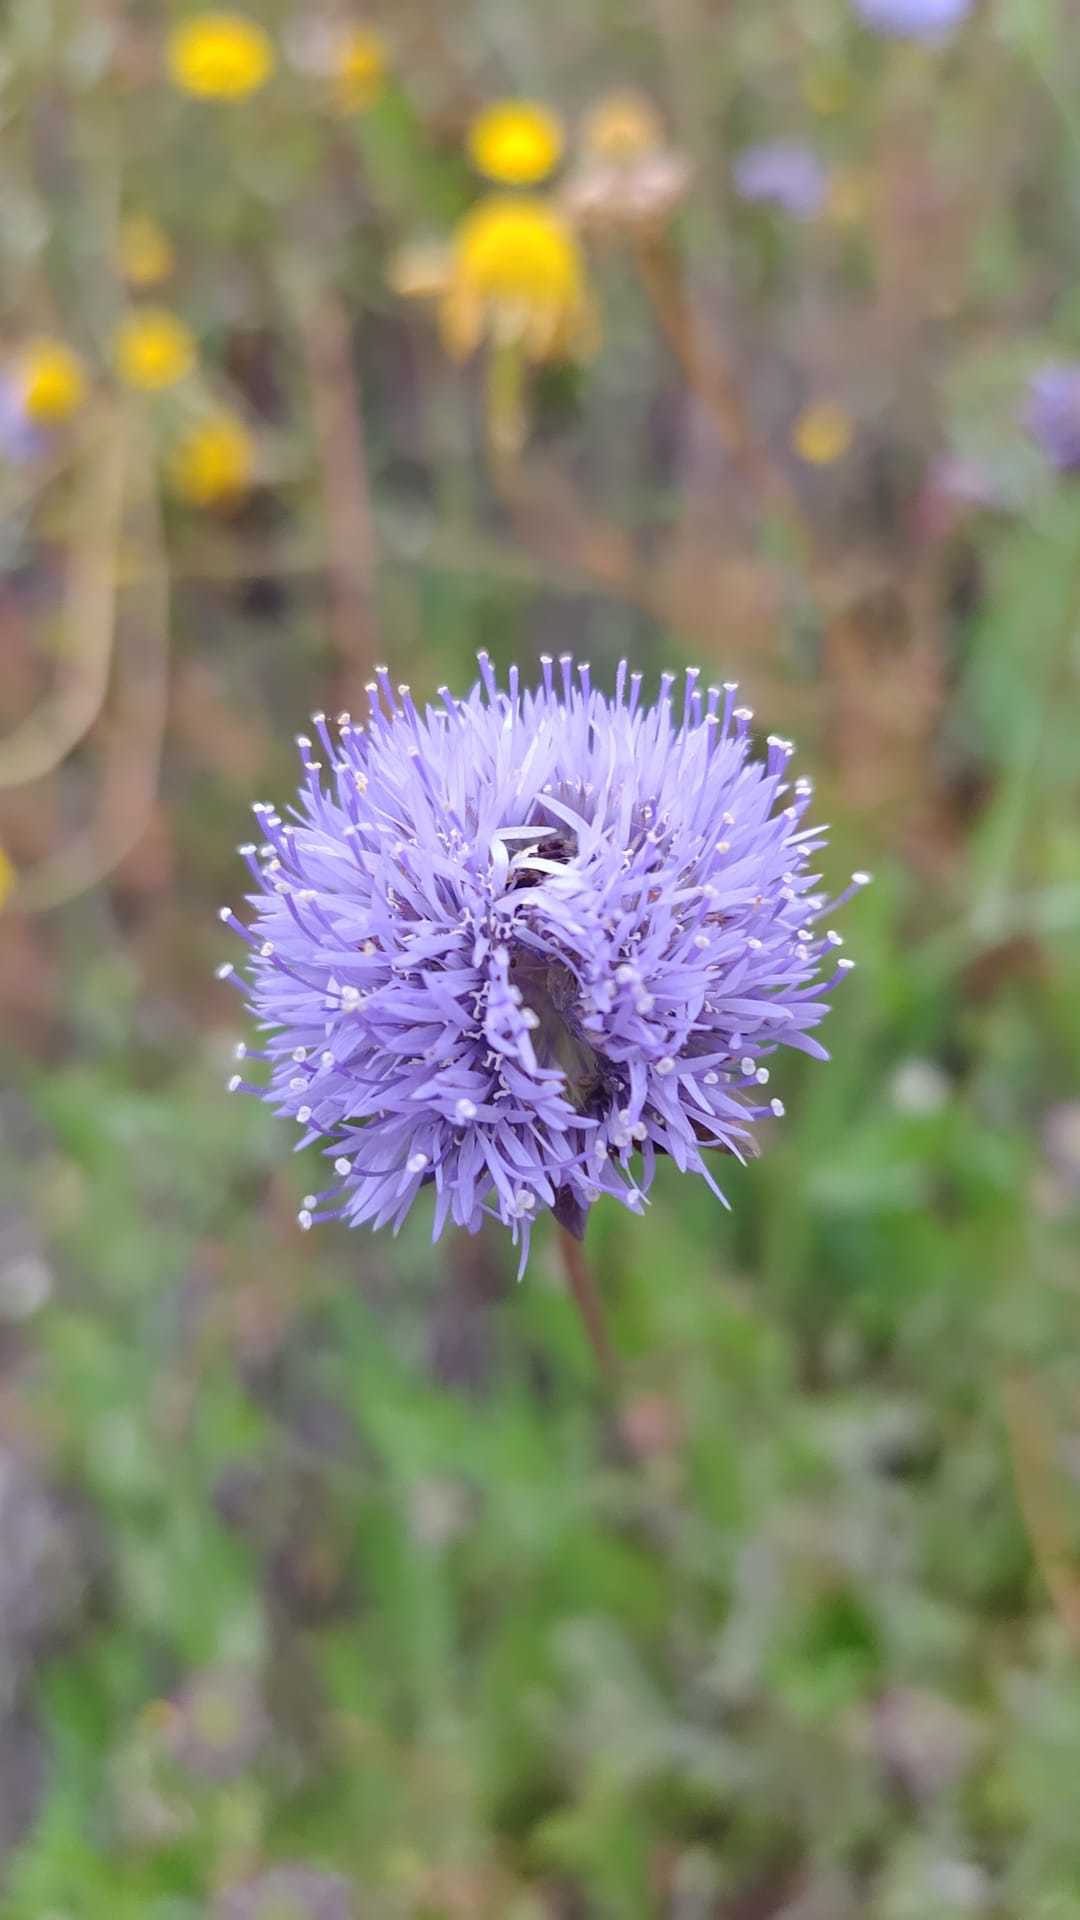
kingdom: Plantae
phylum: Tracheophyta
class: Magnoliopsida
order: Asterales
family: Campanulaceae
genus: Jasione
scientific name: Jasione montana
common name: Sheep's-bit
